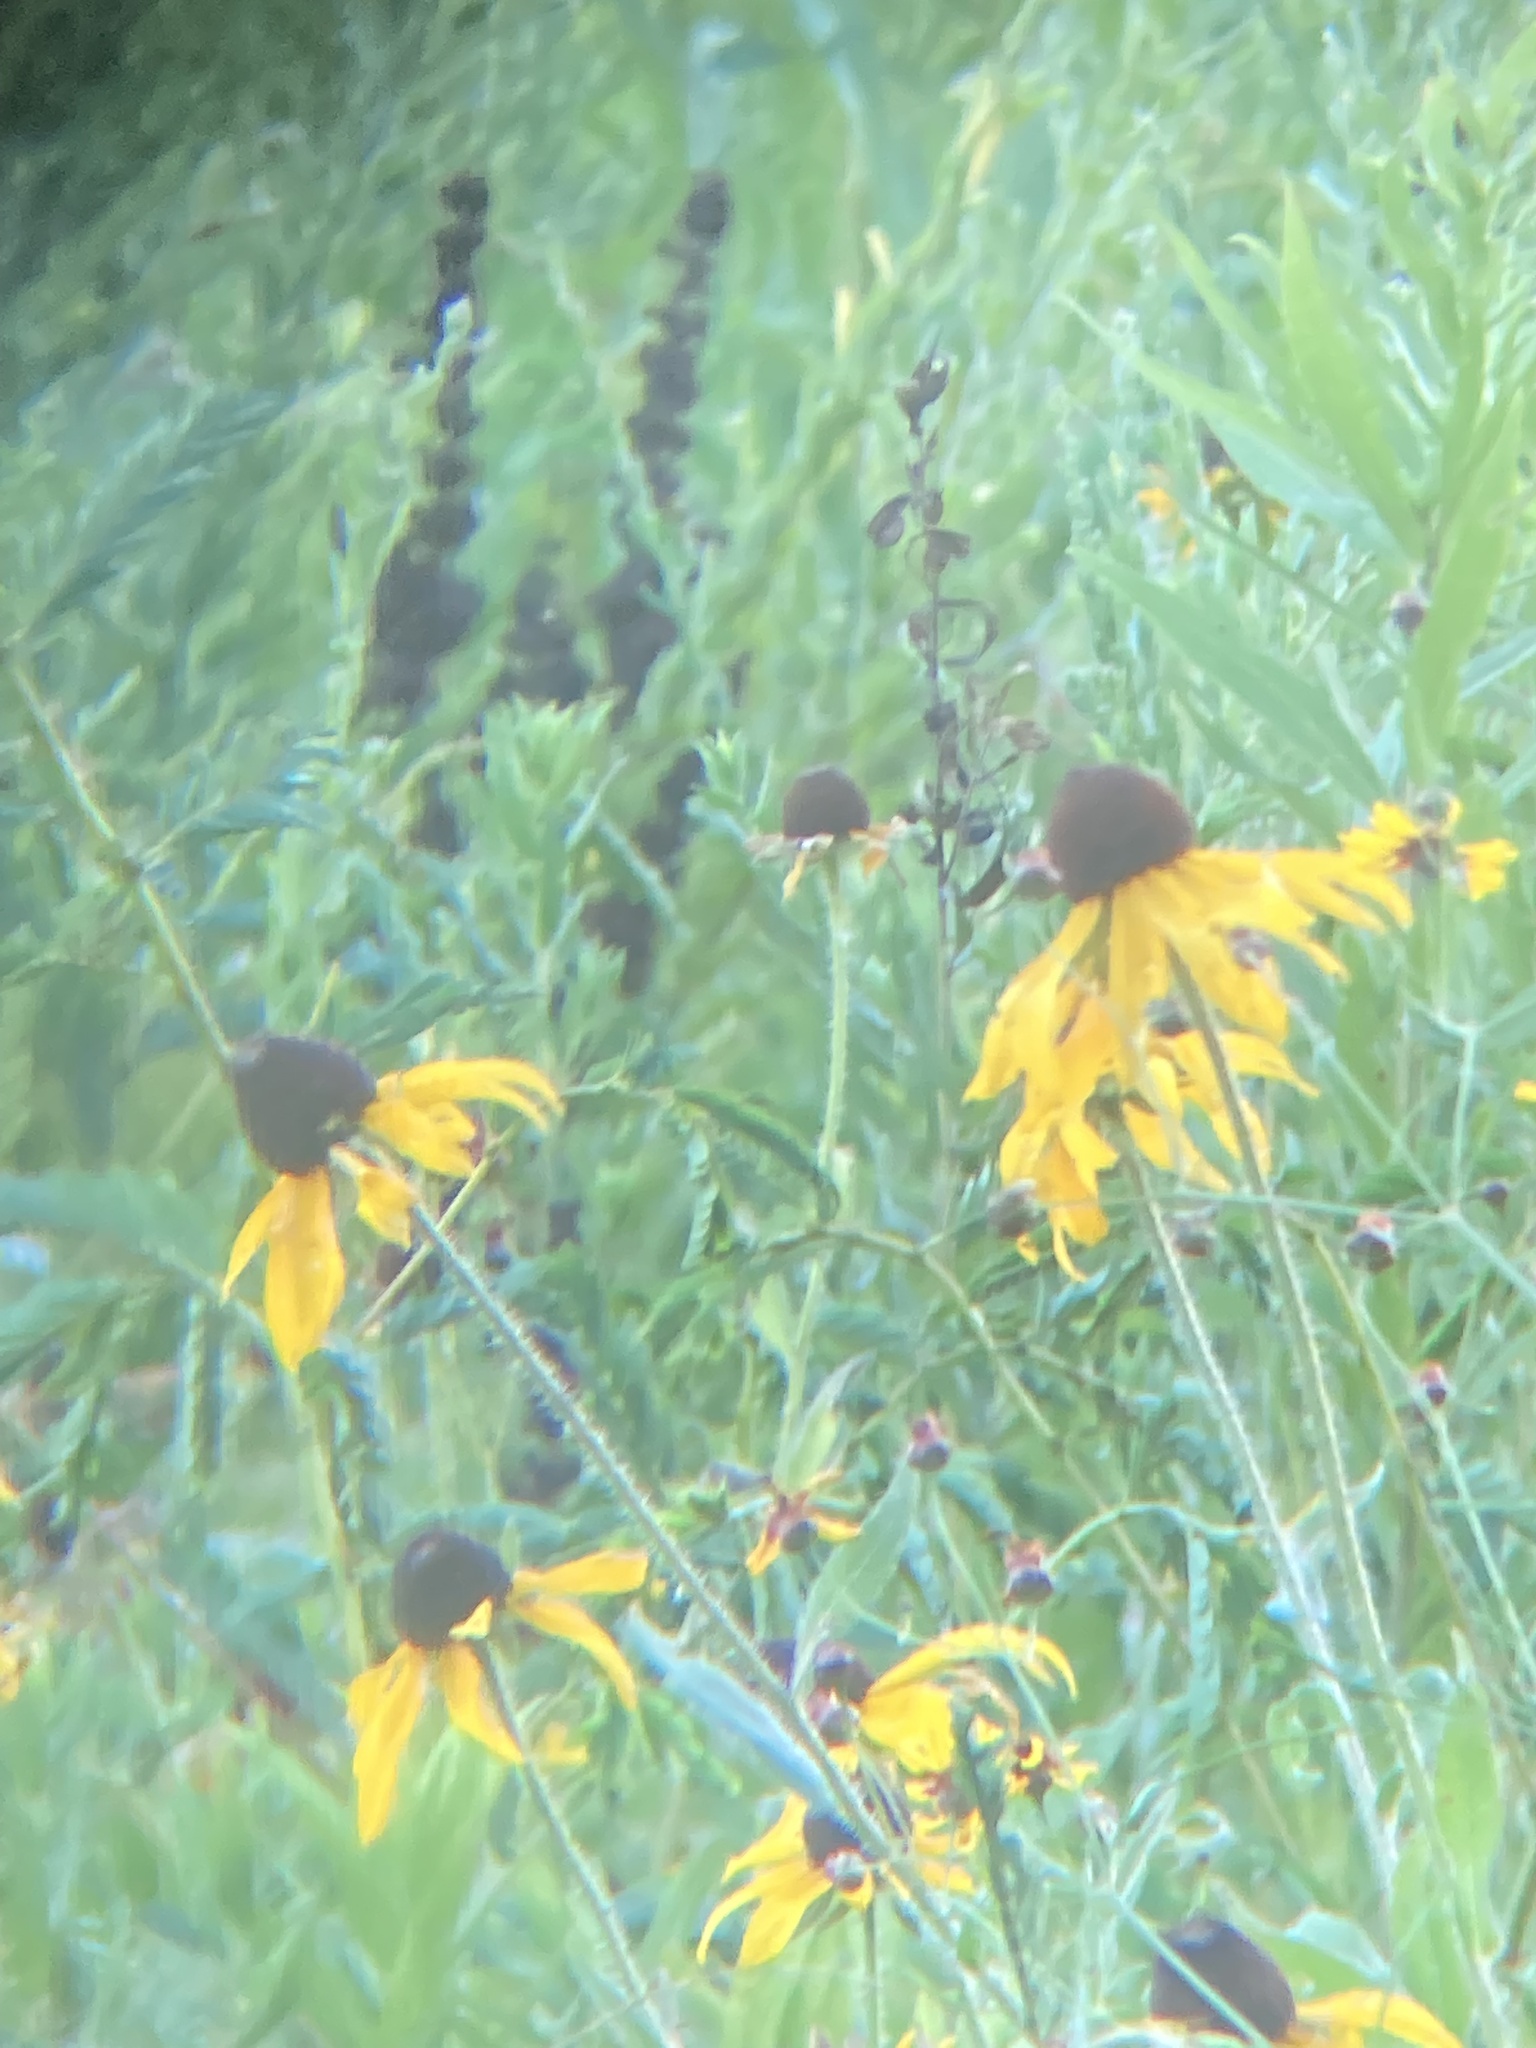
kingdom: Plantae
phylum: Tracheophyta
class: Magnoliopsida
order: Asterales
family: Asteraceae
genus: Rudbeckia
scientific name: Rudbeckia hirta
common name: Black-eyed-susan
